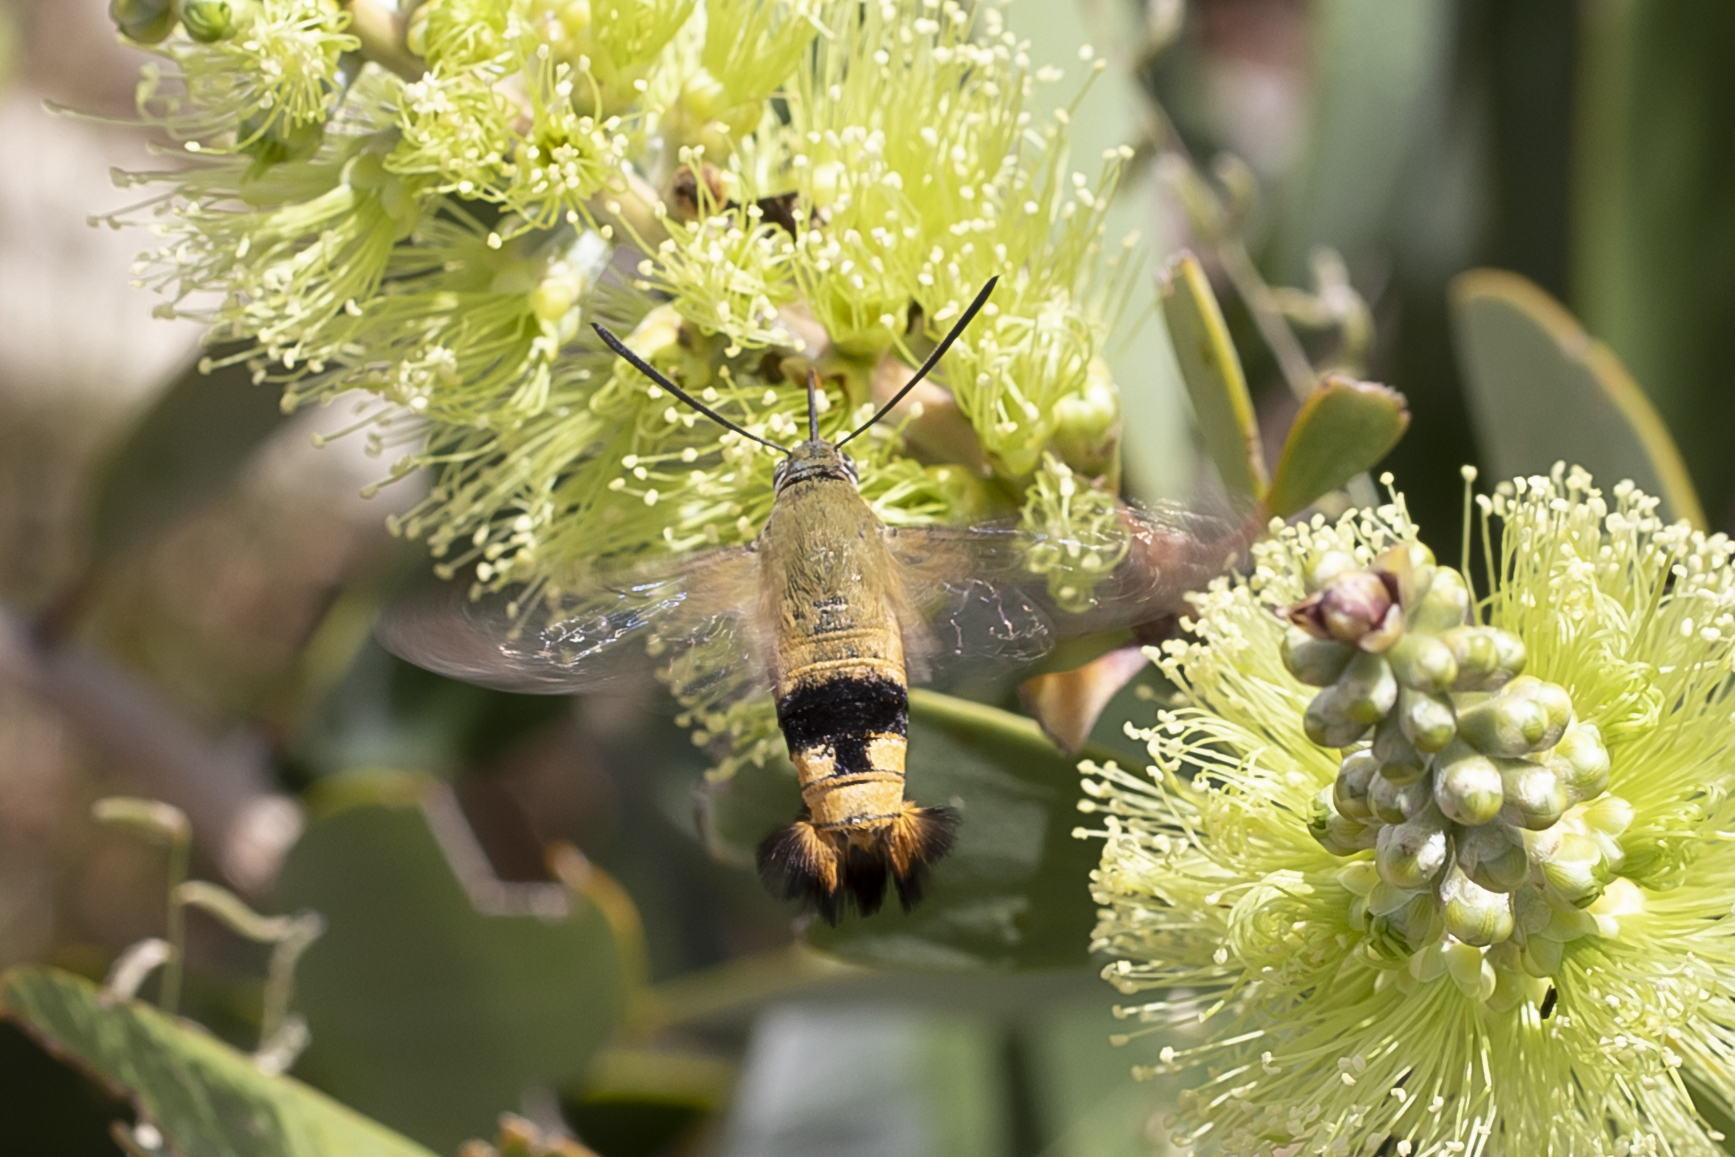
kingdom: Animalia
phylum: Arthropoda
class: Insecta
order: Lepidoptera
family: Sphingidae
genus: Cephonodes
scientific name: Cephonodes kingii
